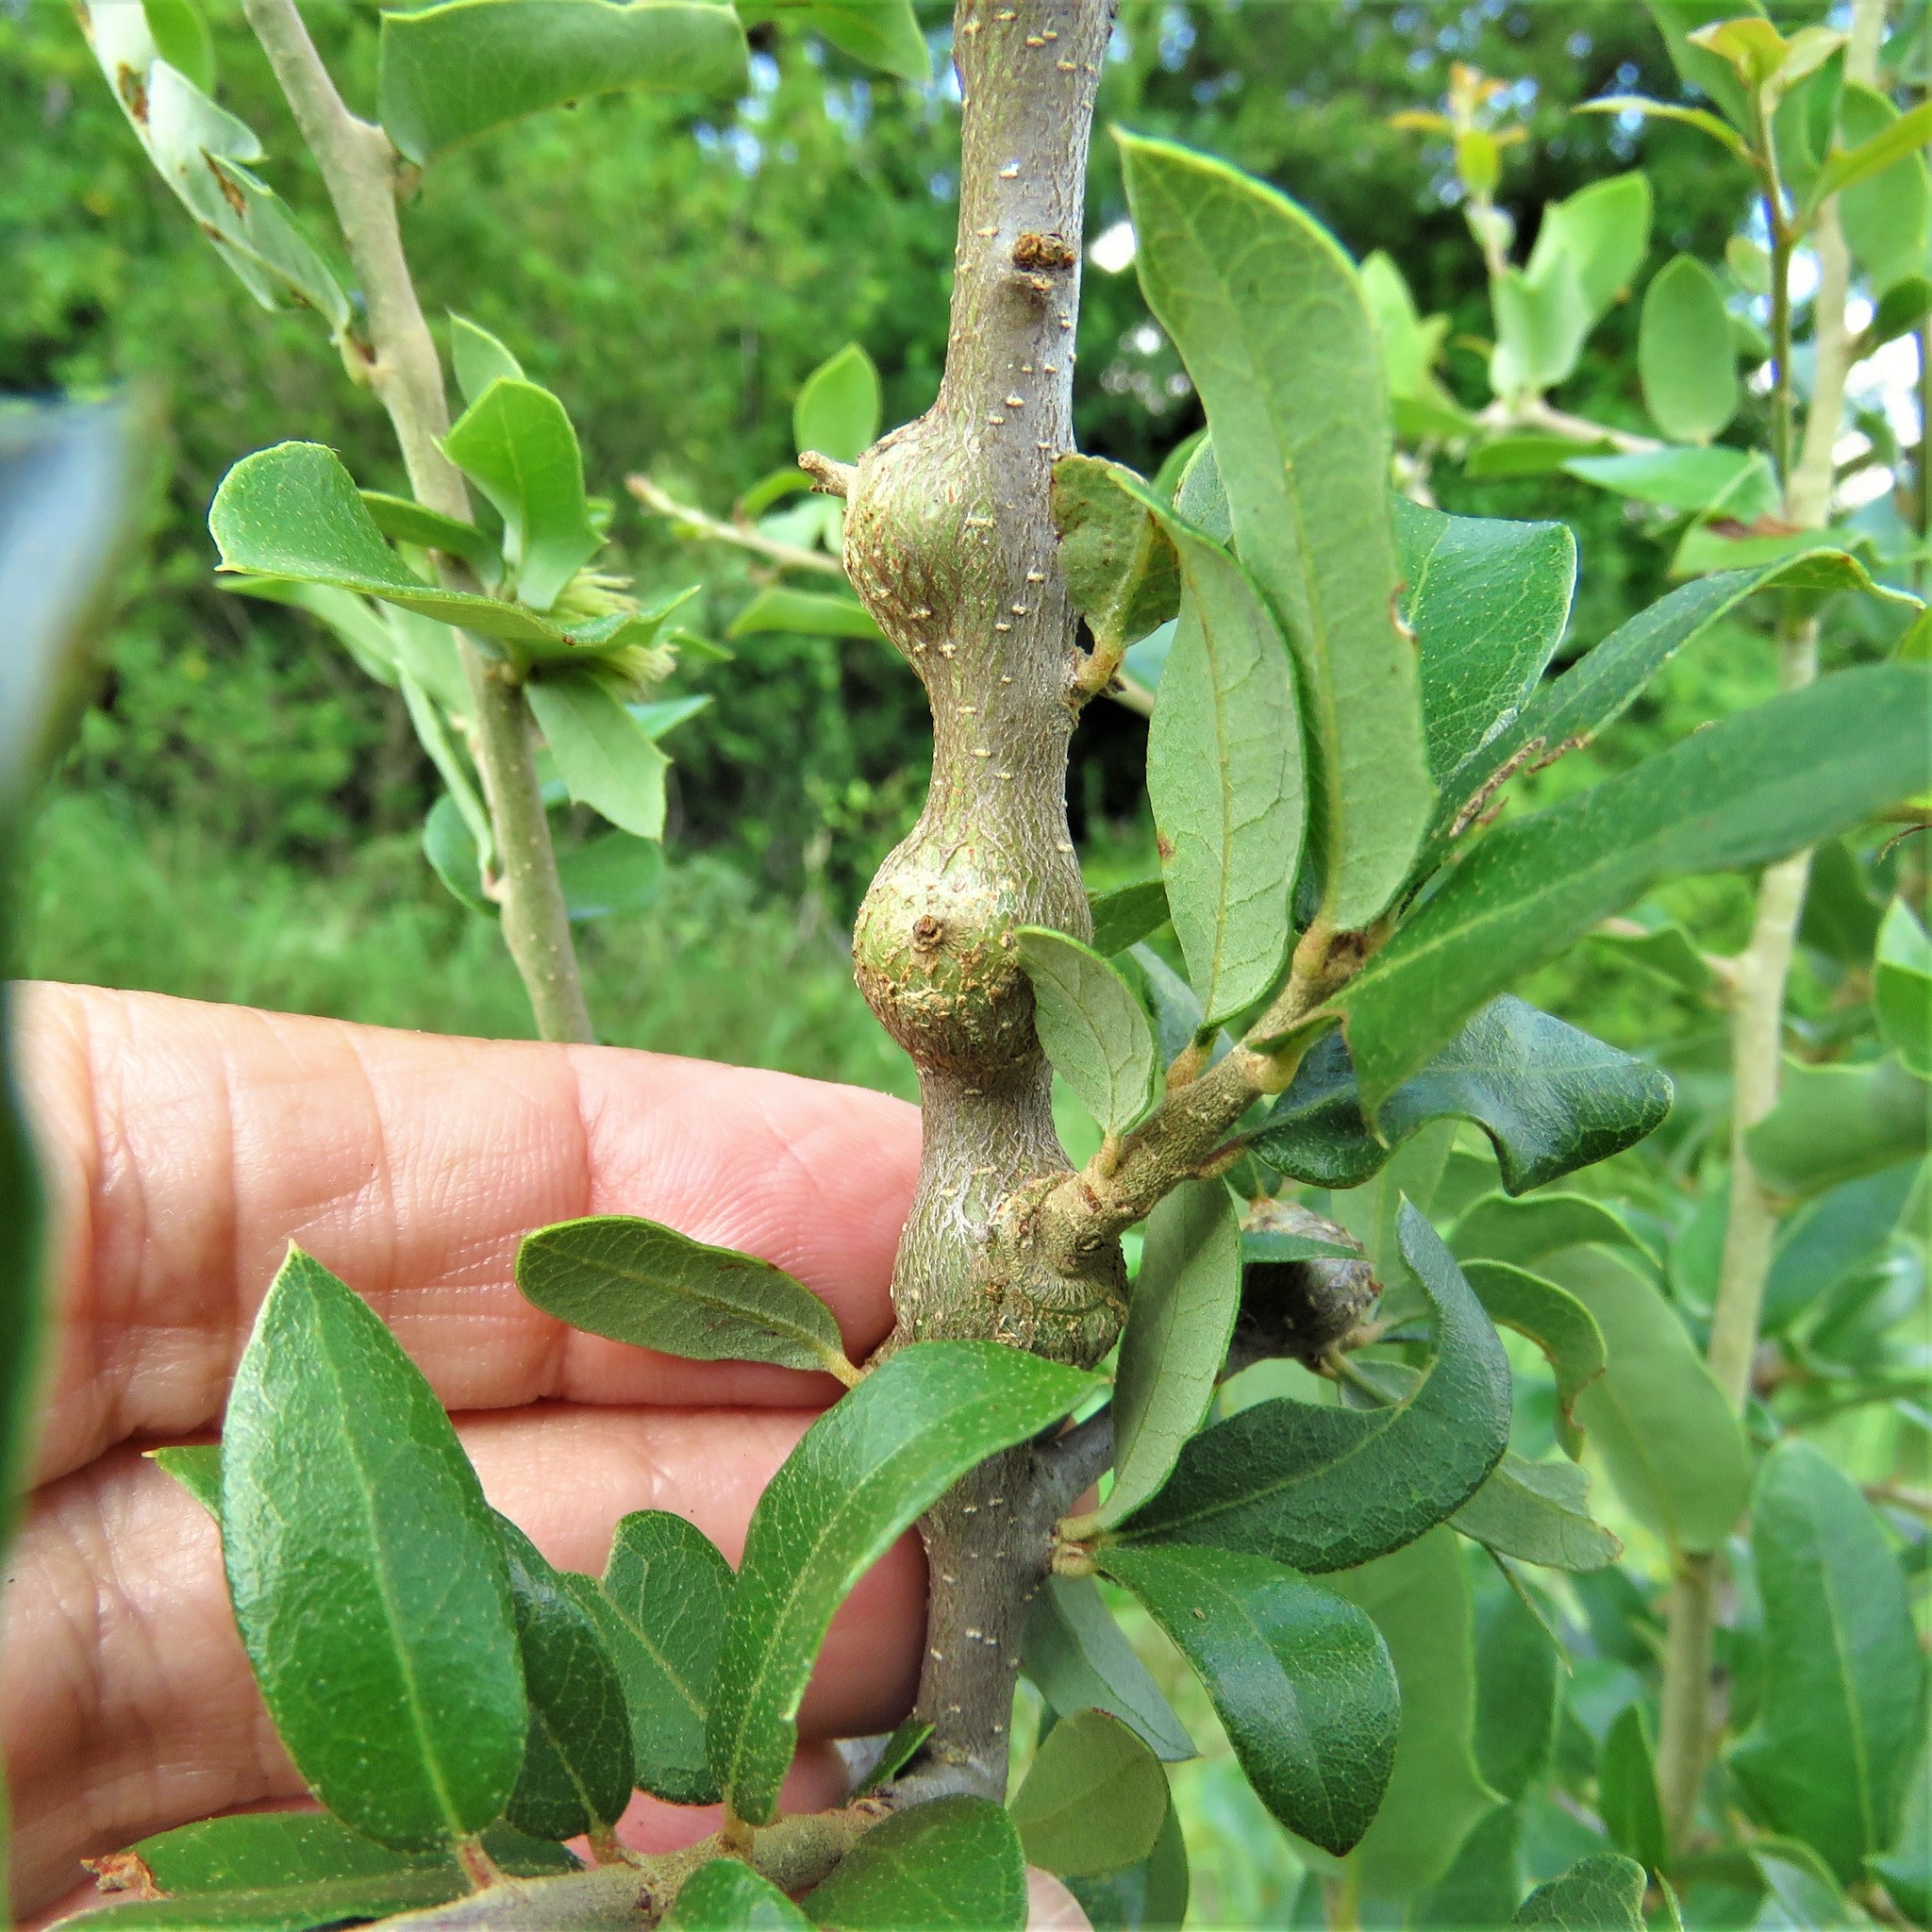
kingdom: Animalia
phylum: Arthropoda
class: Insecta
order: Hymenoptera
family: Cynipidae
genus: Callirhytis
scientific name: Callirhytis
